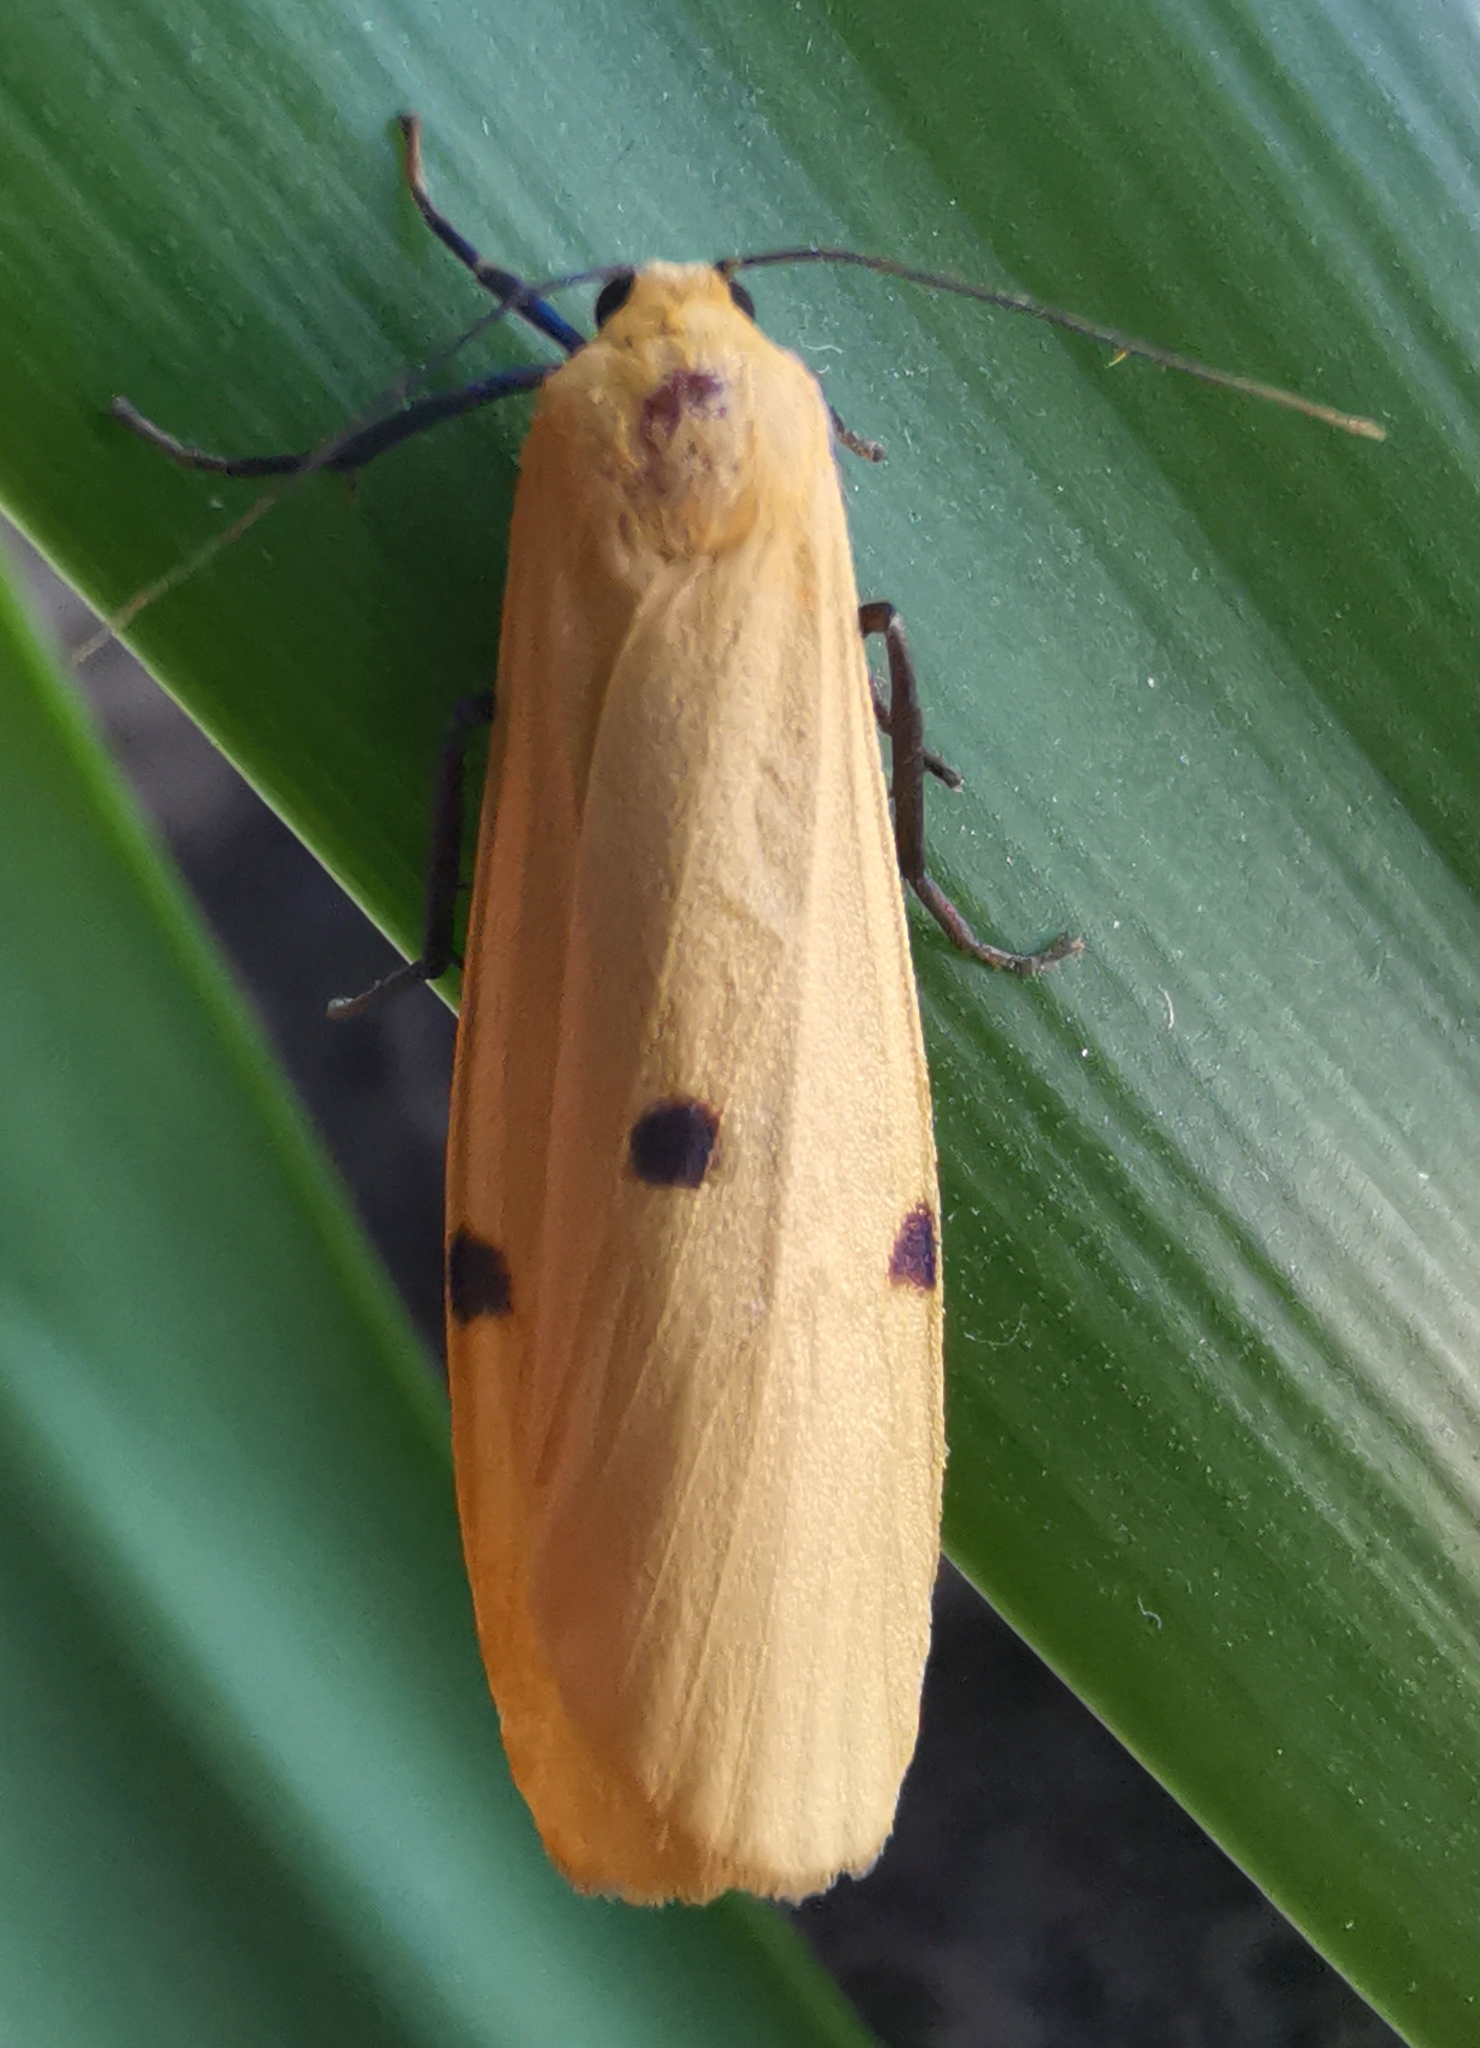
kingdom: Animalia
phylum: Arthropoda
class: Insecta
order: Lepidoptera
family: Erebidae
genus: Lithosia
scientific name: Lithosia quadra
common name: Four-spotted footman
